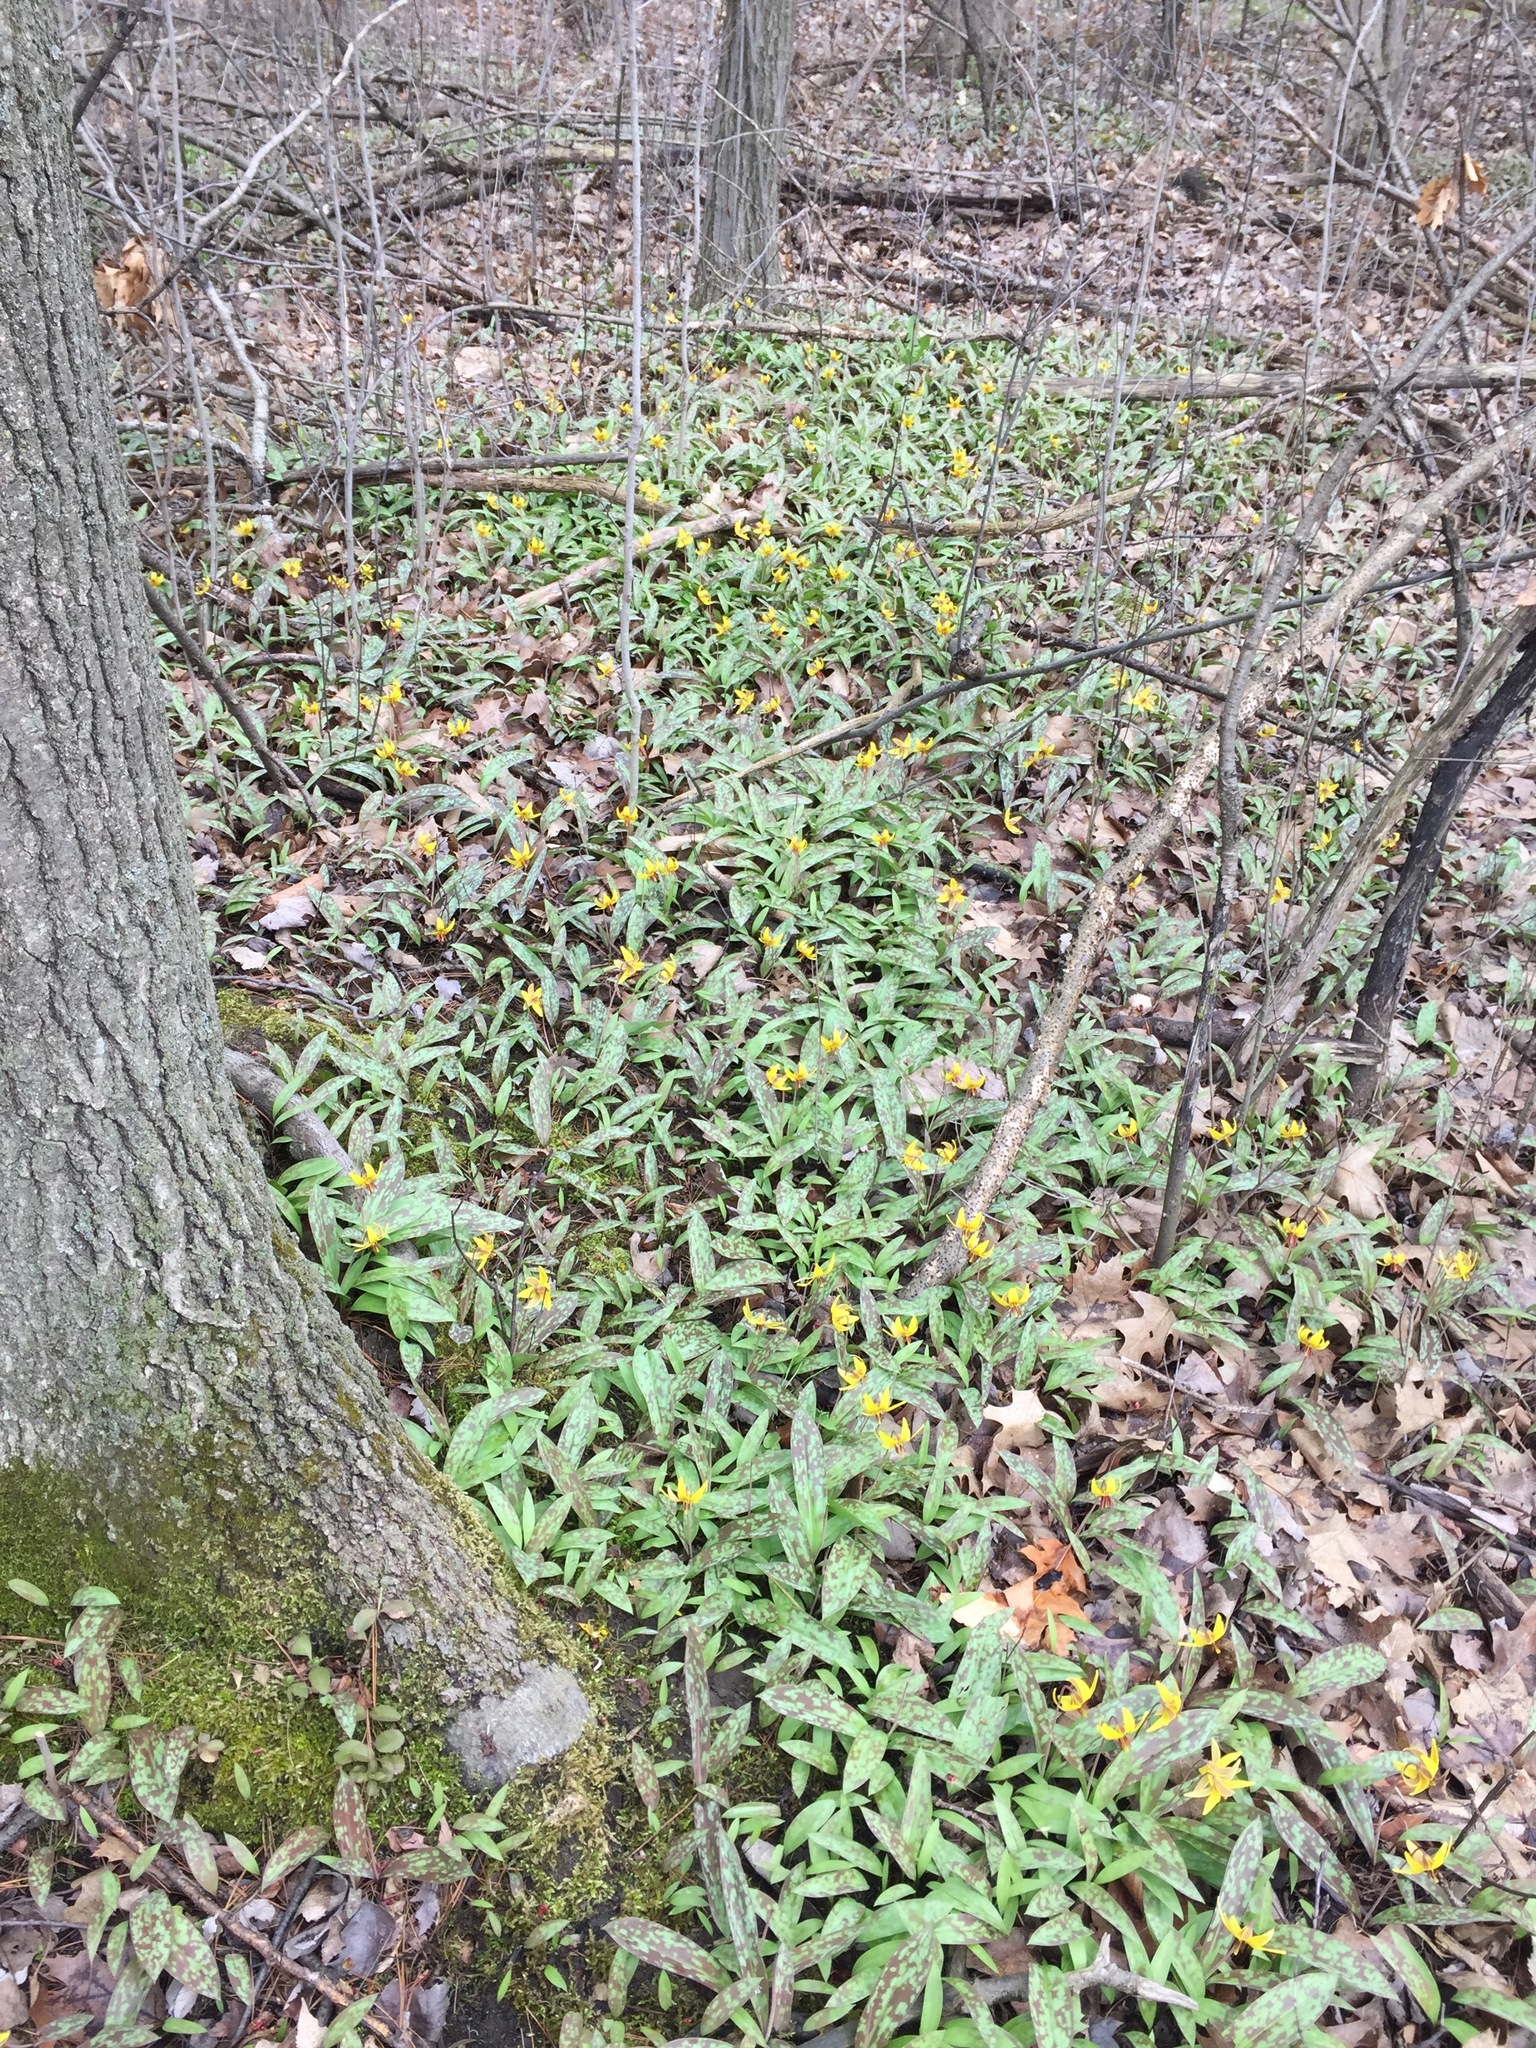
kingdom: Plantae
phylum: Tracheophyta
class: Liliopsida
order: Liliales
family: Liliaceae
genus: Erythronium
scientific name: Erythronium americanum
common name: Yellow adder's-tongue
